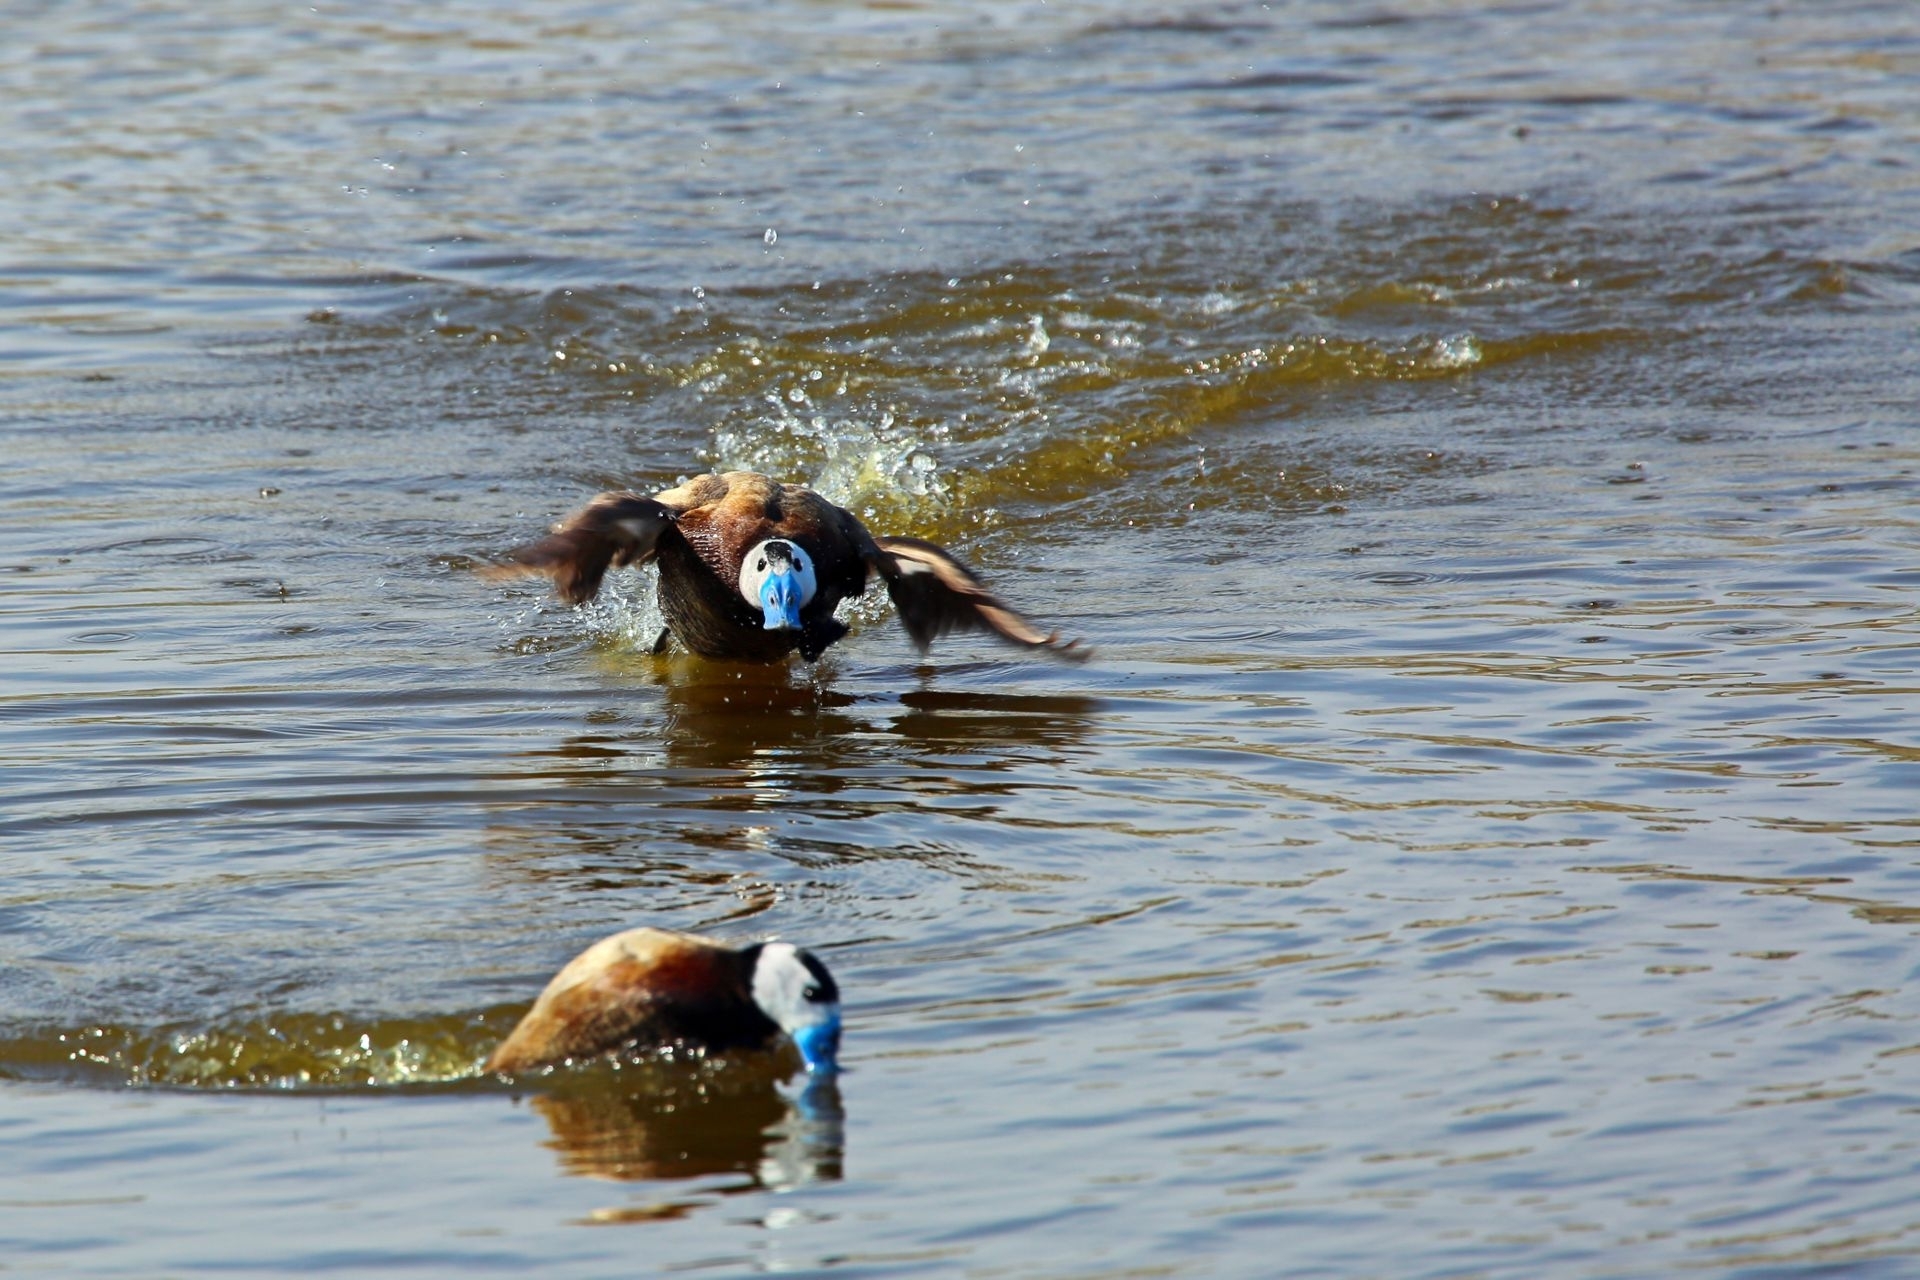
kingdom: Animalia
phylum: Chordata
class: Aves
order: Anseriformes
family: Anatidae
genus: Oxyura
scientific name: Oxyura leucocephala
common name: White-headed duck
